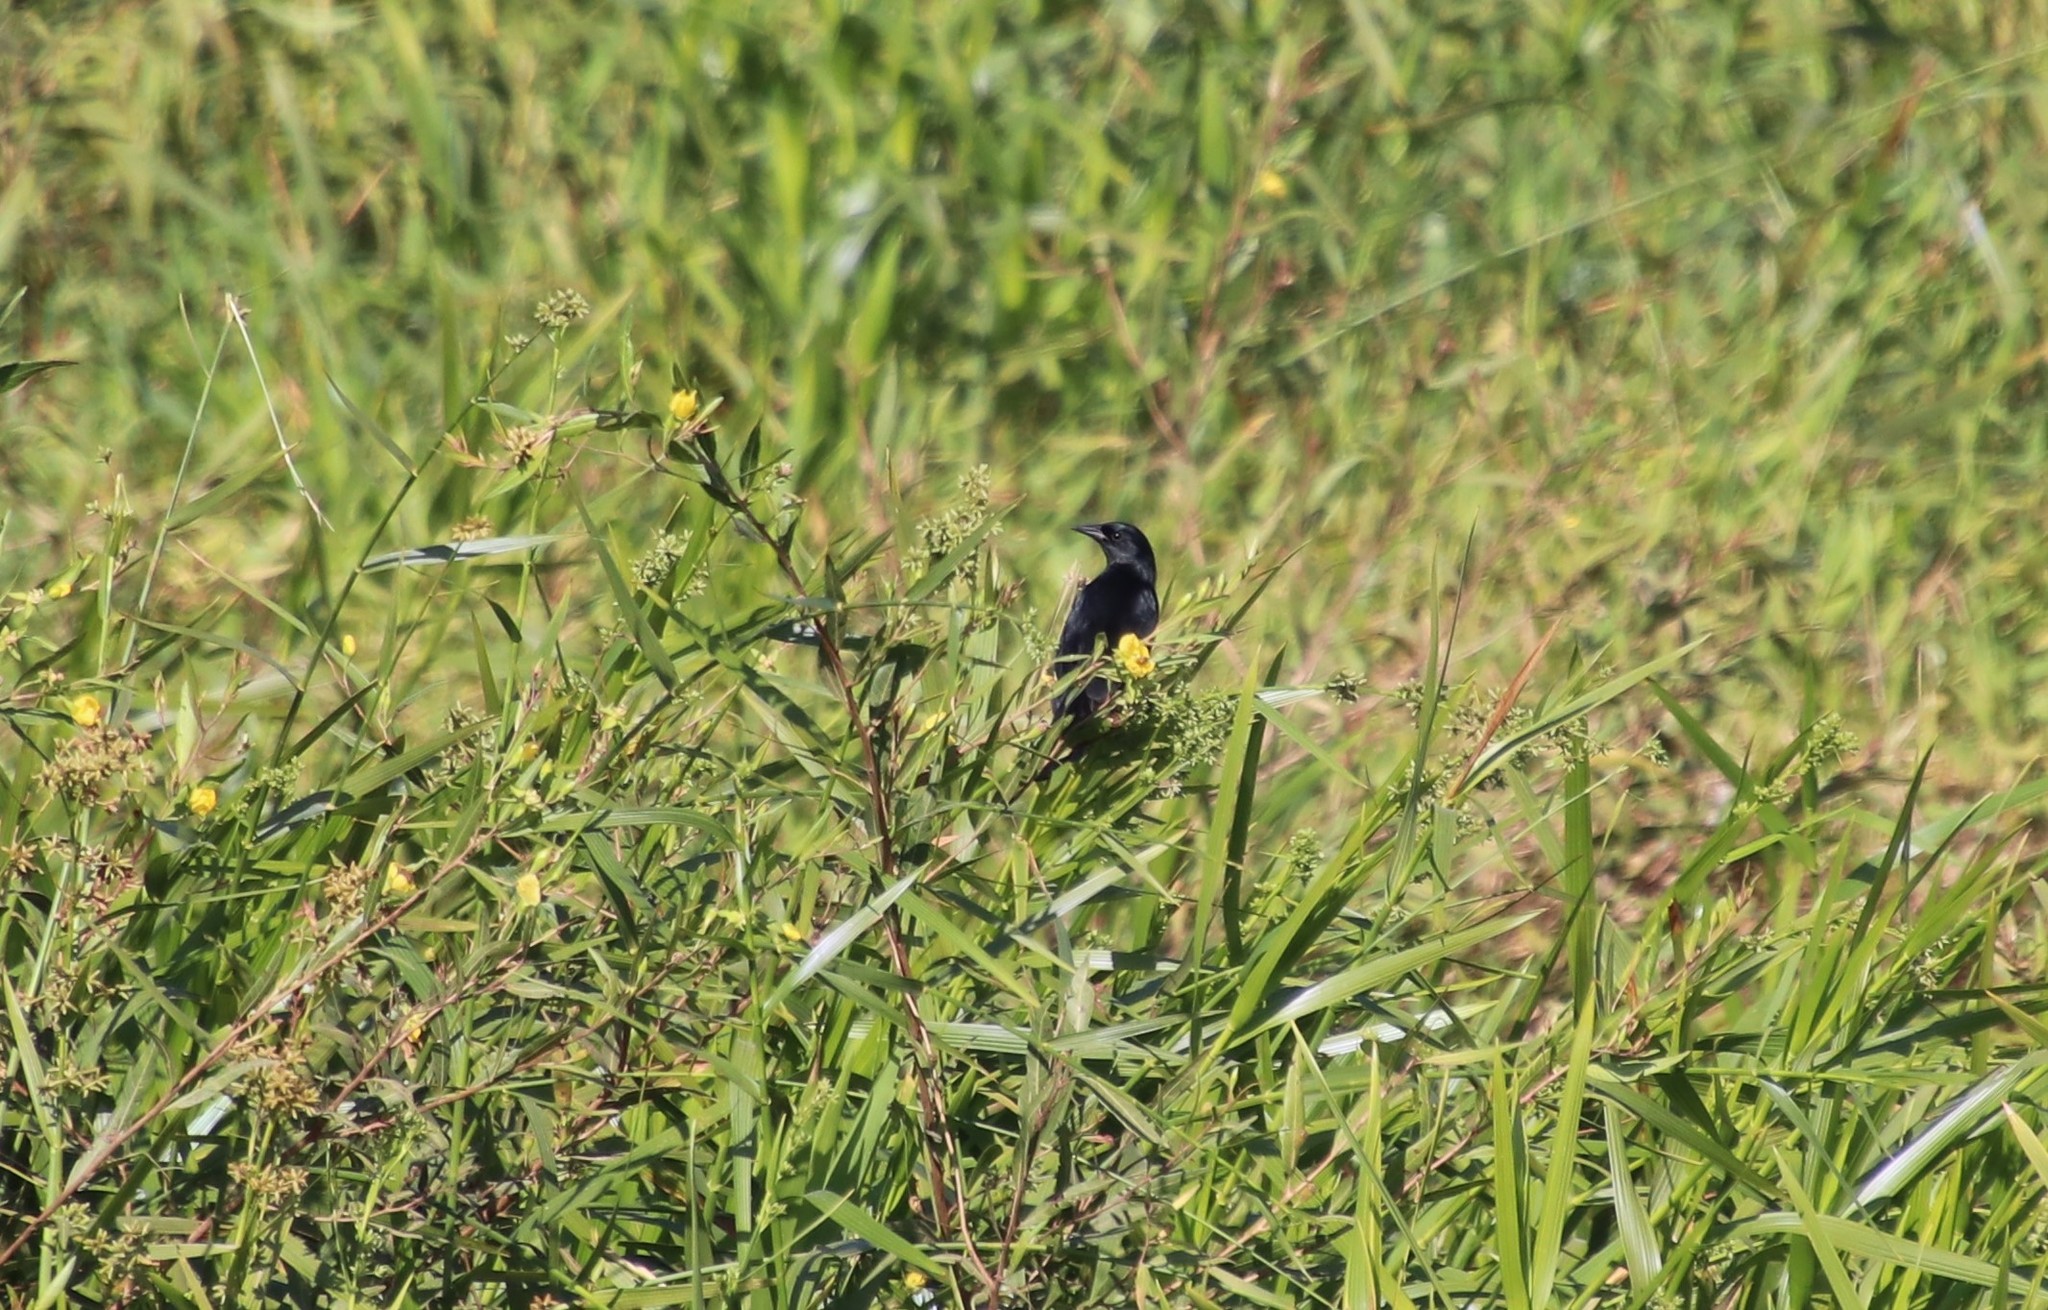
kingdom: Animalia
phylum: Chordata
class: Aves
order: Passeriformes
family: Icteridae
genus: Agelasticus
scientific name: Agelasticus cyanopus
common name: Unicolored blackbird
